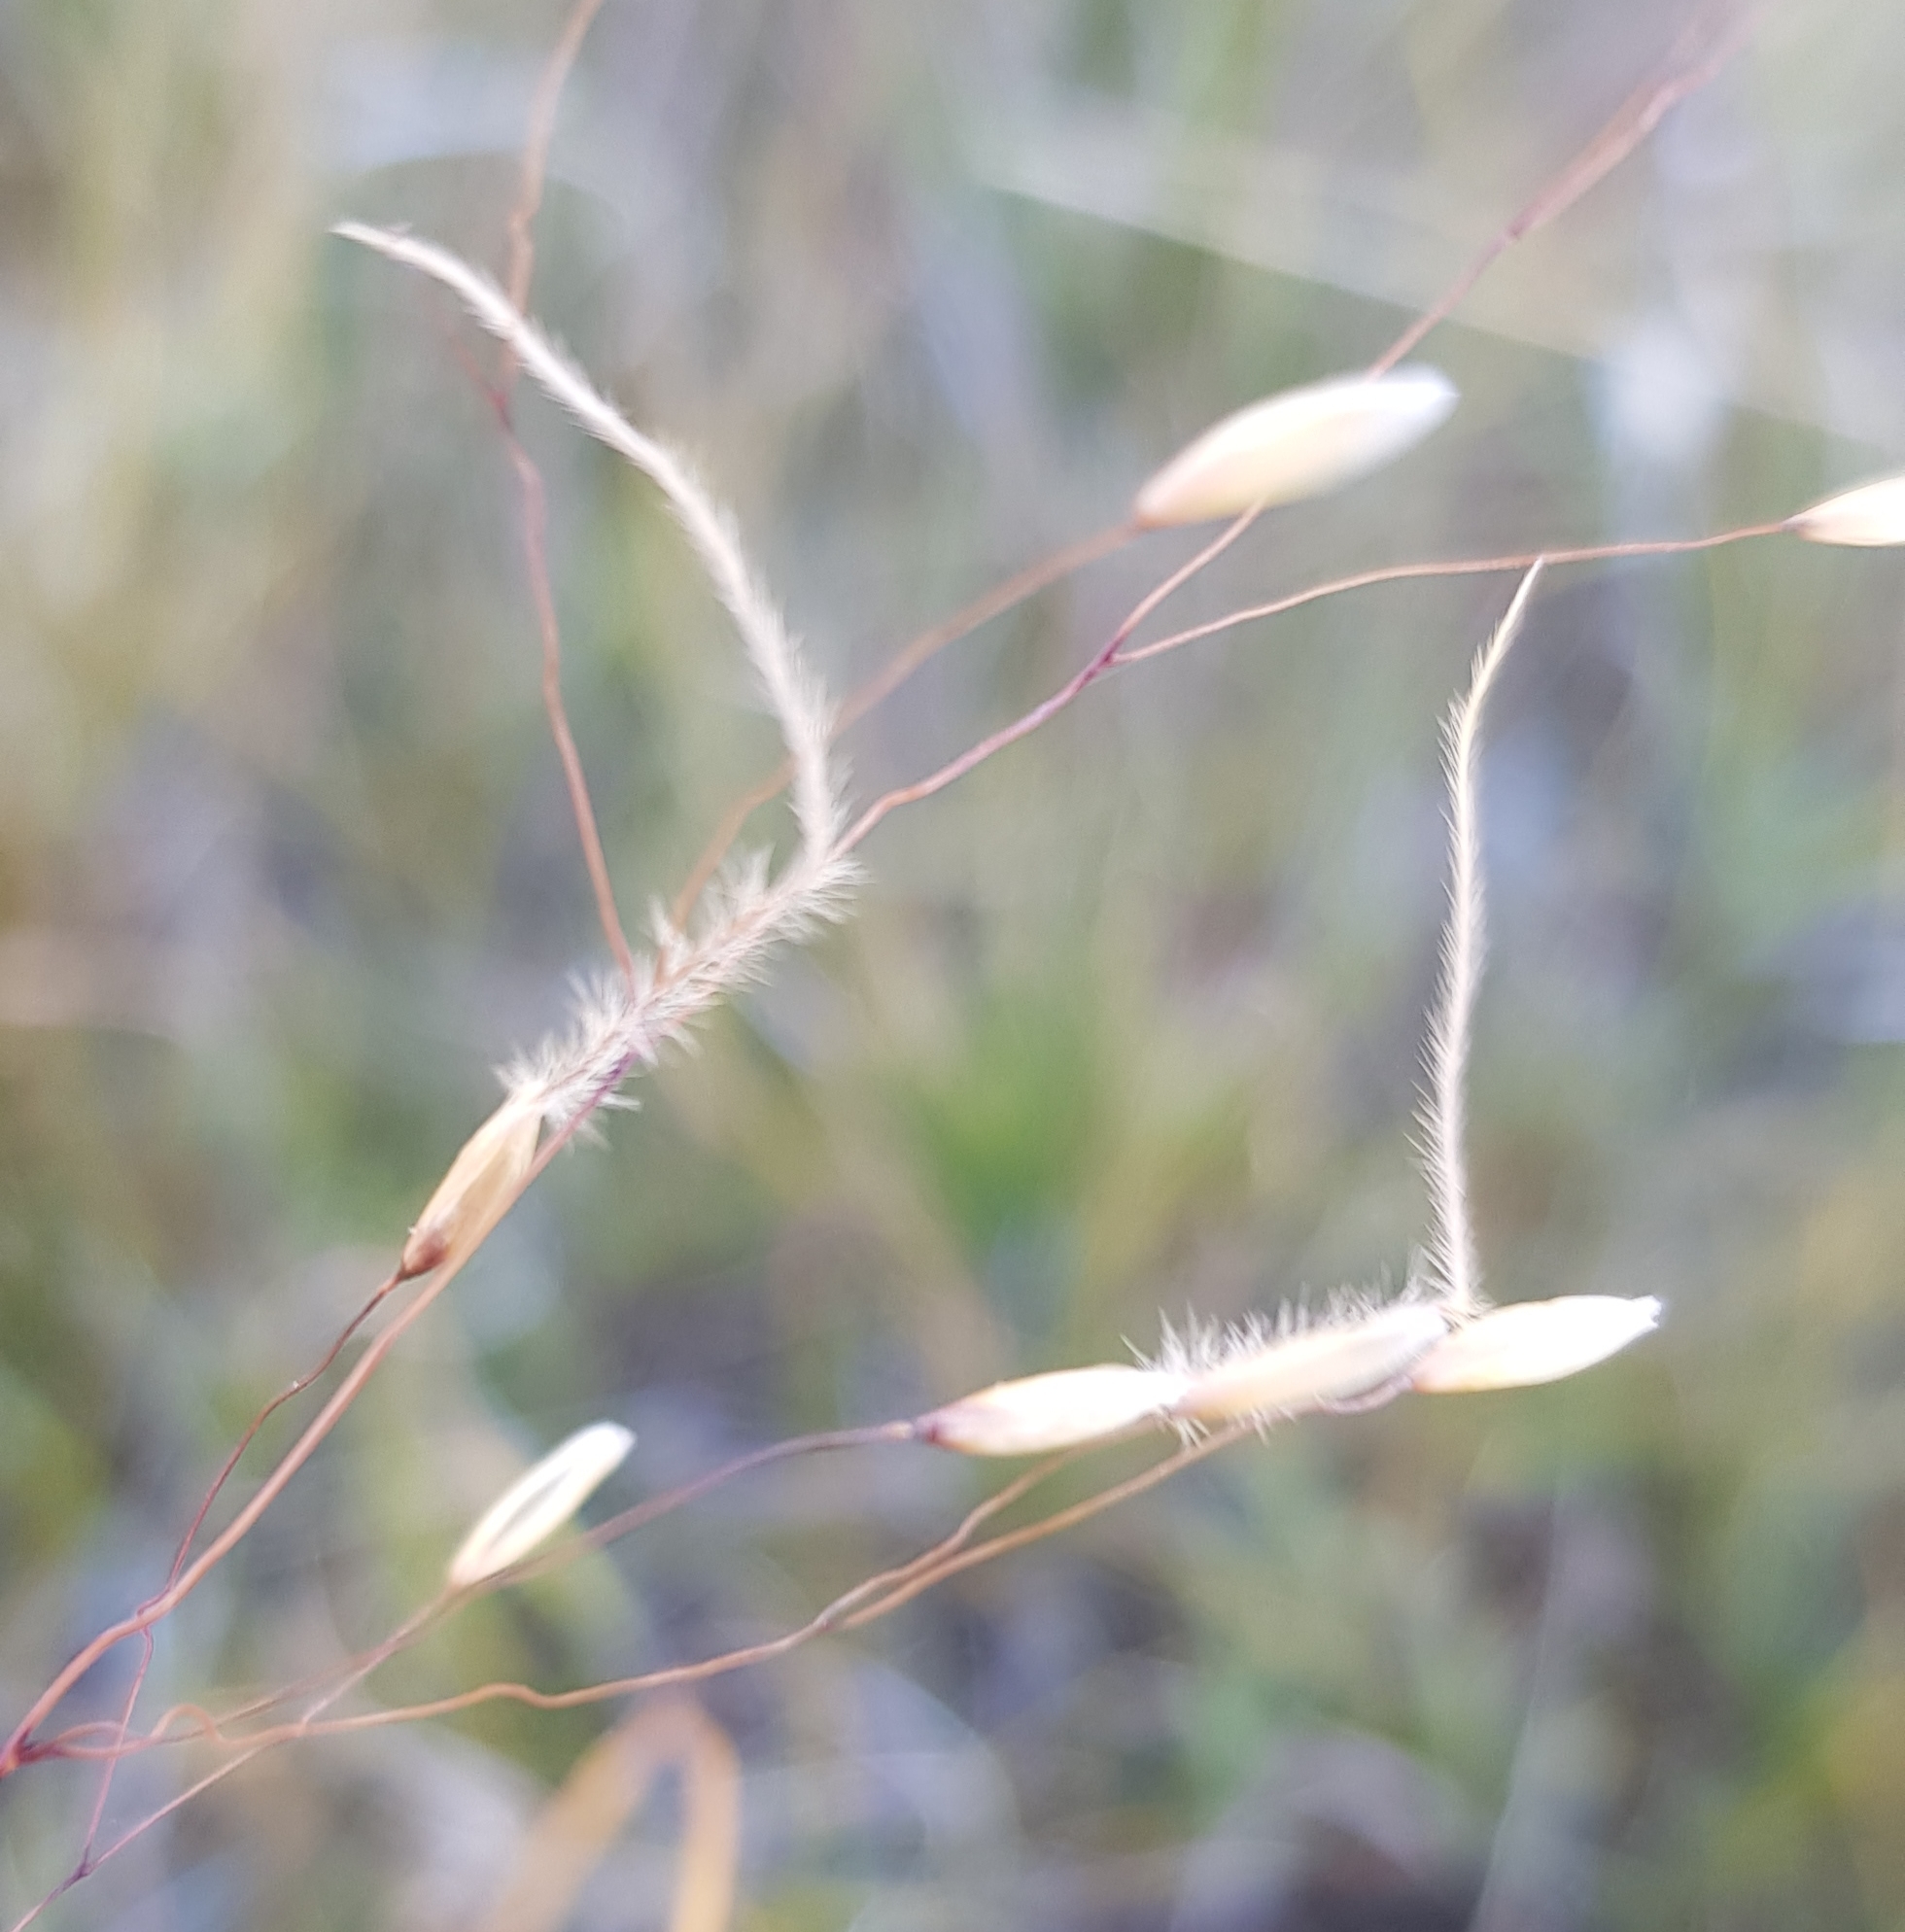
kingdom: Plantae
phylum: Tracheophyta
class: Liliopsida
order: Poales
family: Poaceae
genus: Ptilagrostis
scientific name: Ptilagrostis mongholica
